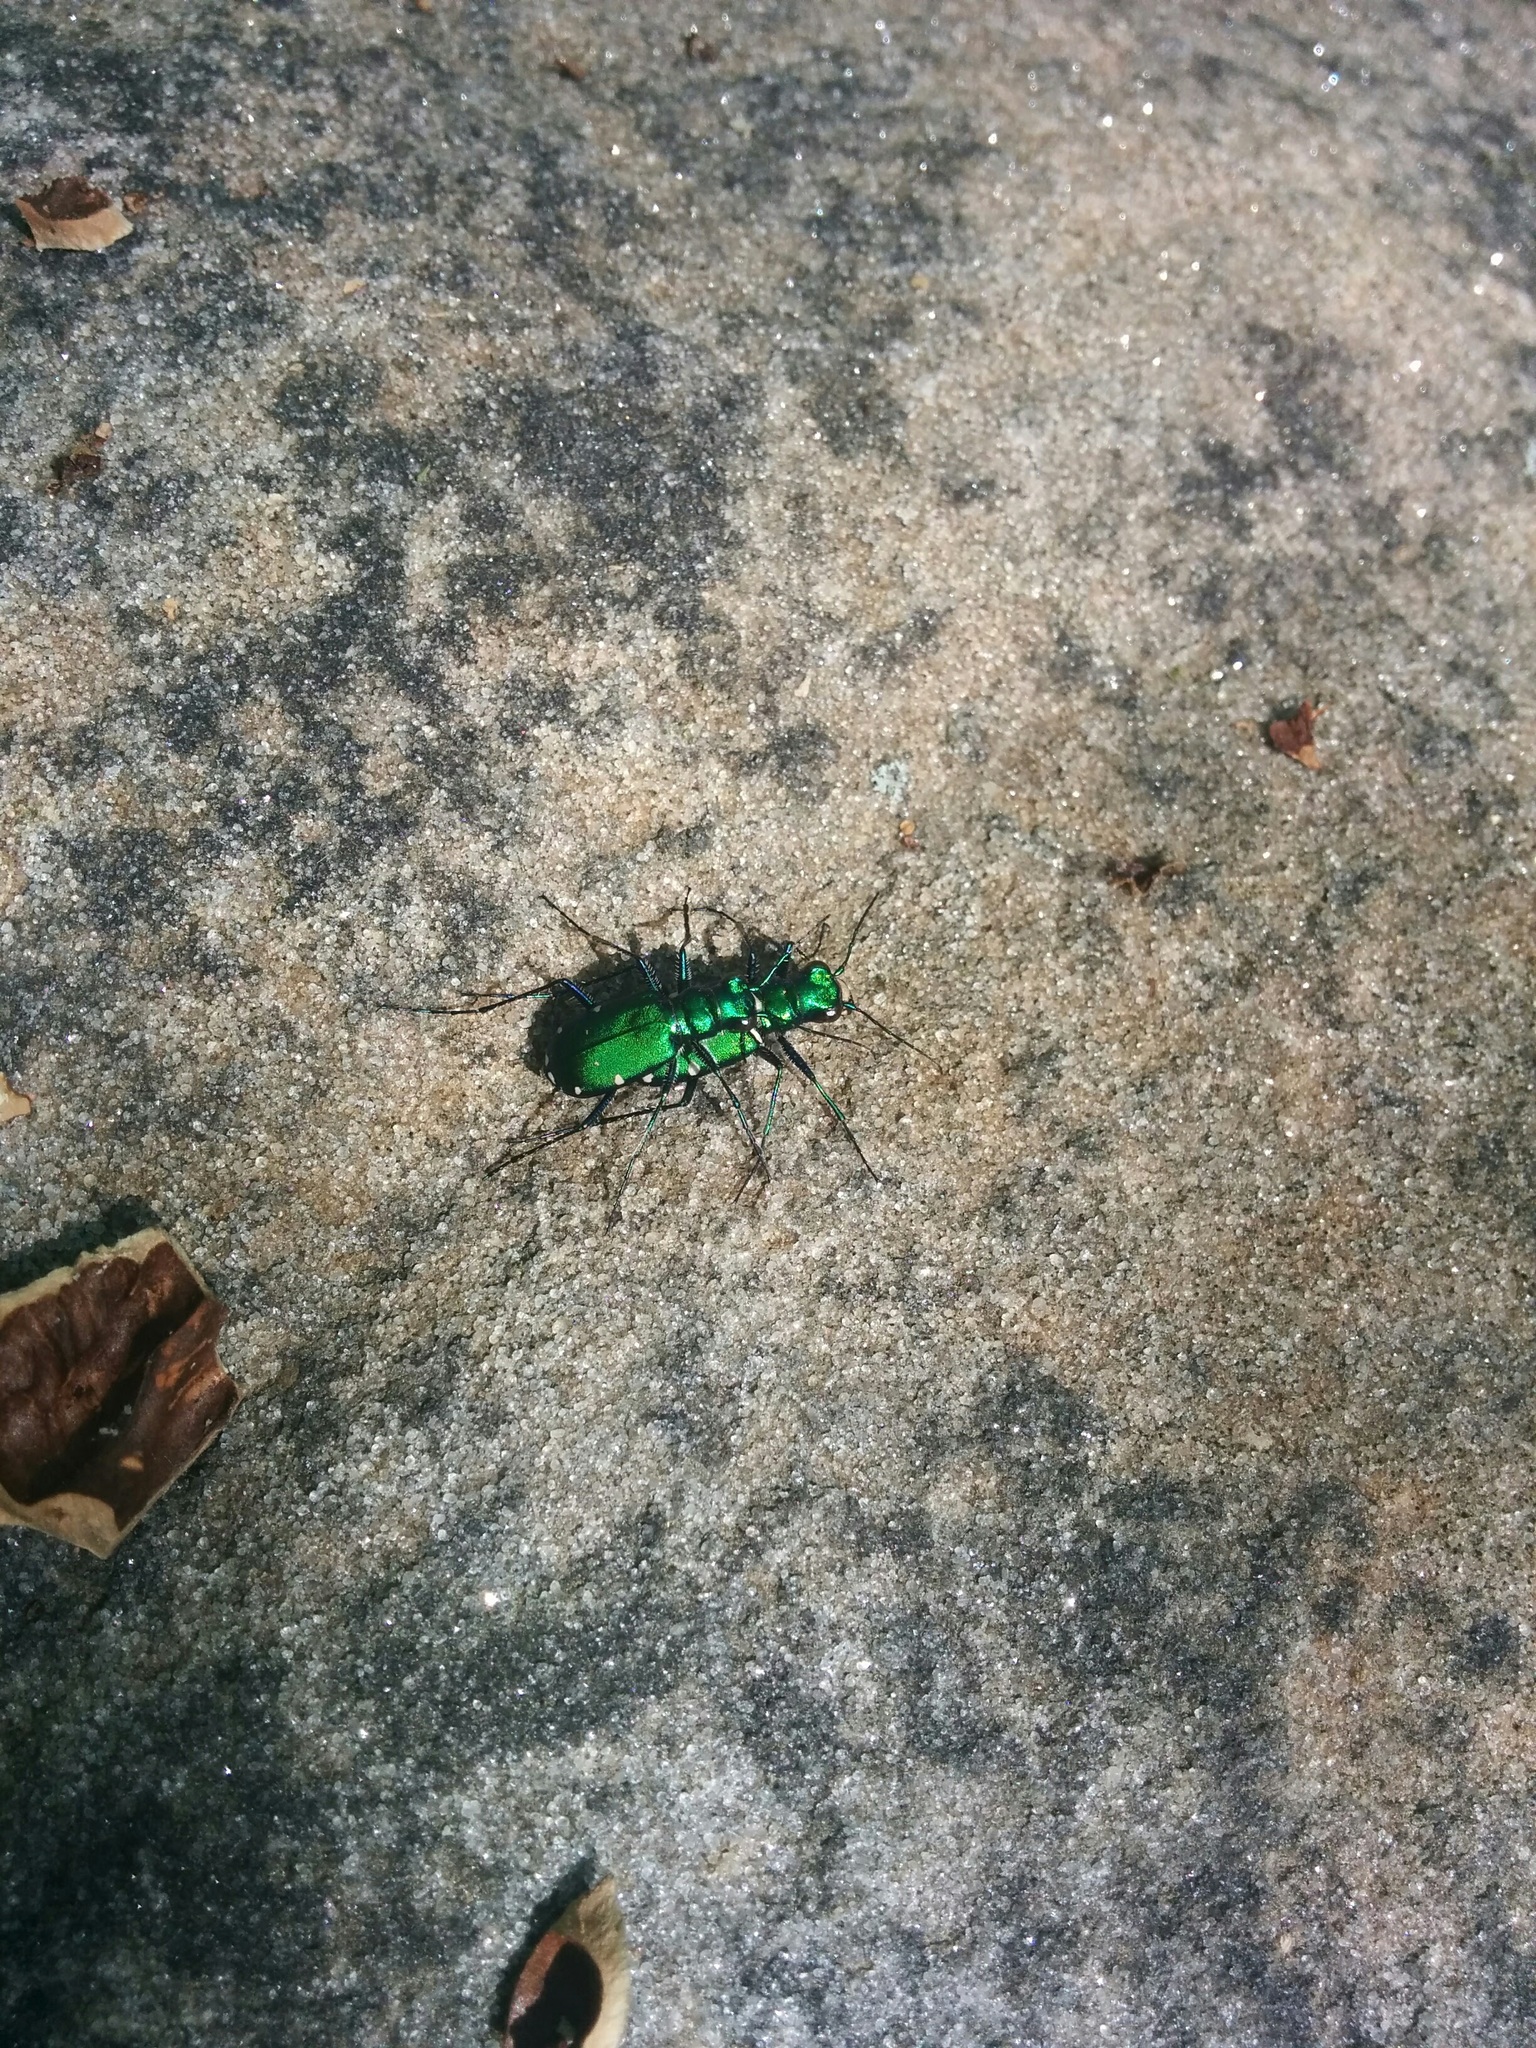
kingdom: Animalia
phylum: Arthropoda
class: Insecta
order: Coleoptera
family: Carabidae
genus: Cicindela
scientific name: Cicindela sexguttata
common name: Six-spotted tiger beetle
